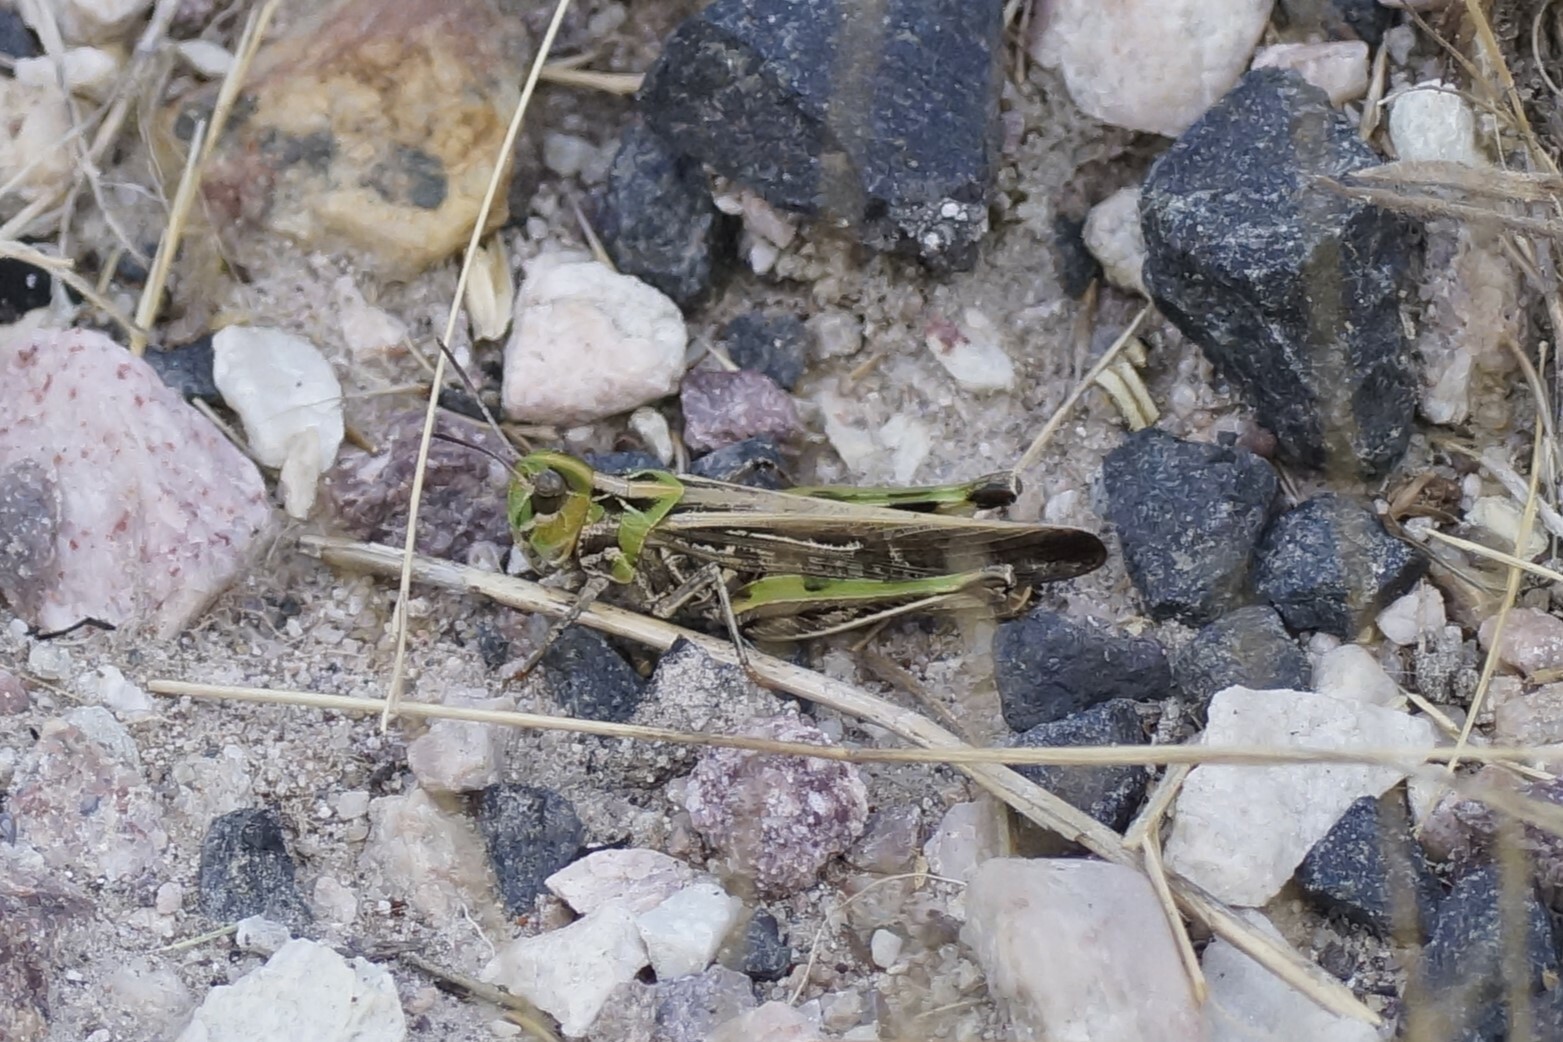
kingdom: Animalia
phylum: Arthropoda
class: Insecta
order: Orthoptera
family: Acrididae
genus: Austroicetes
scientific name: Austroicetes vulgaris
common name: Southeastern austroicetes
